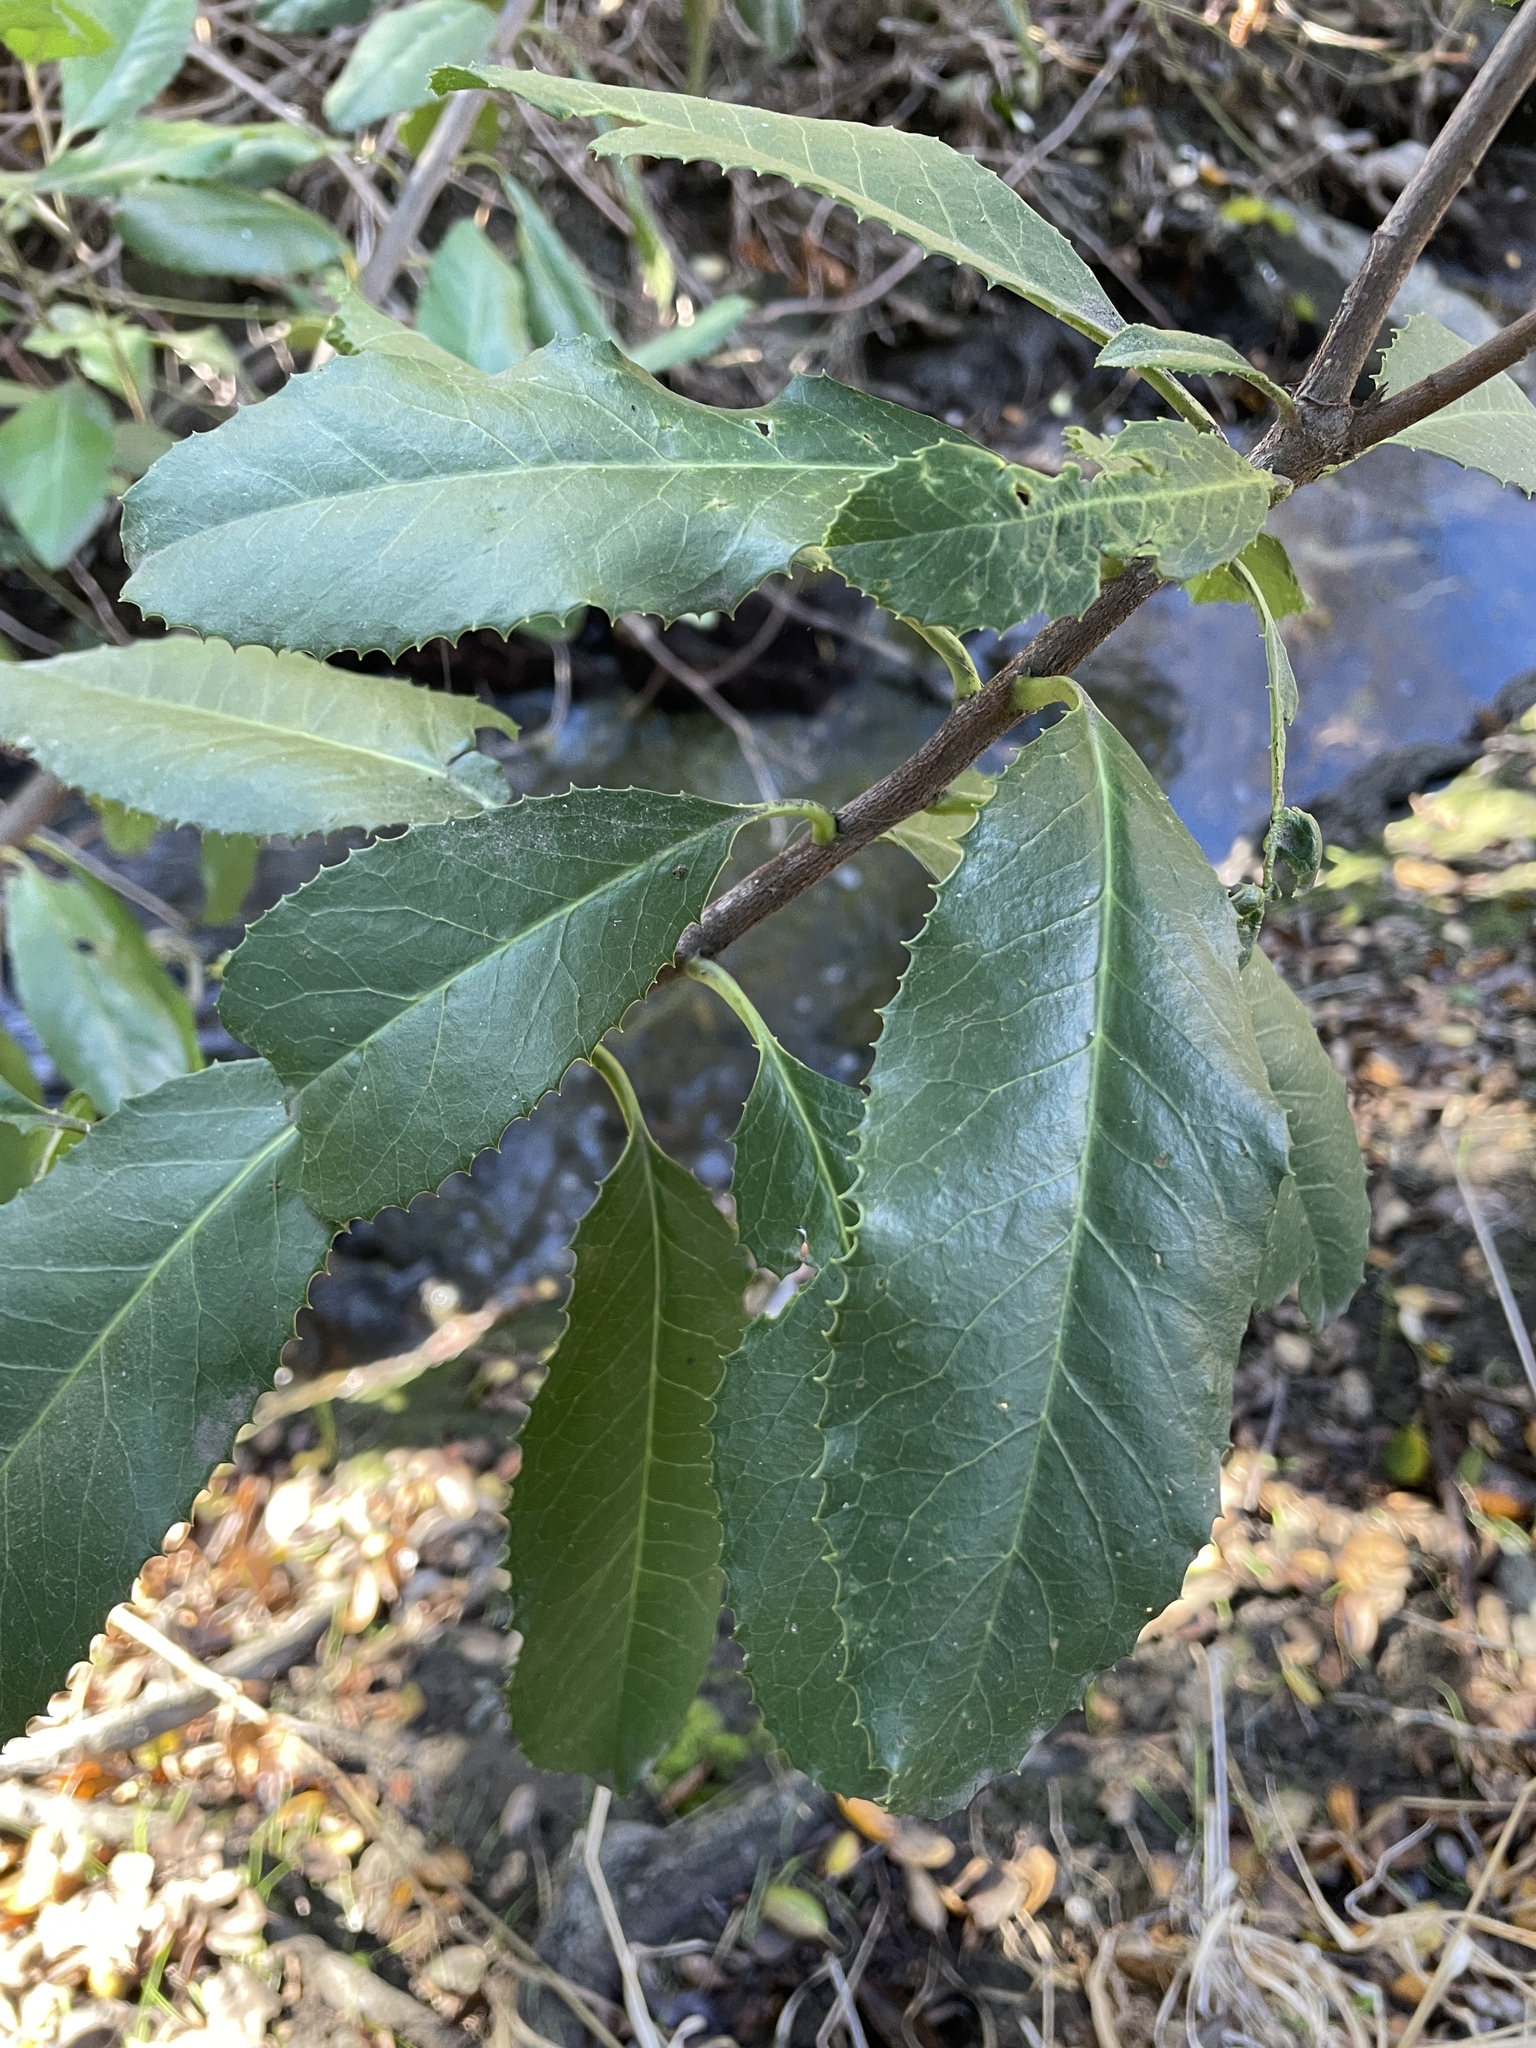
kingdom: Plantae
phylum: Tracheophyta
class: Magnoliopsida
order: Rosales
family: Rosaceae
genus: Heteromeles
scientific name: Heteromeles arbutifolia
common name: California-holly
